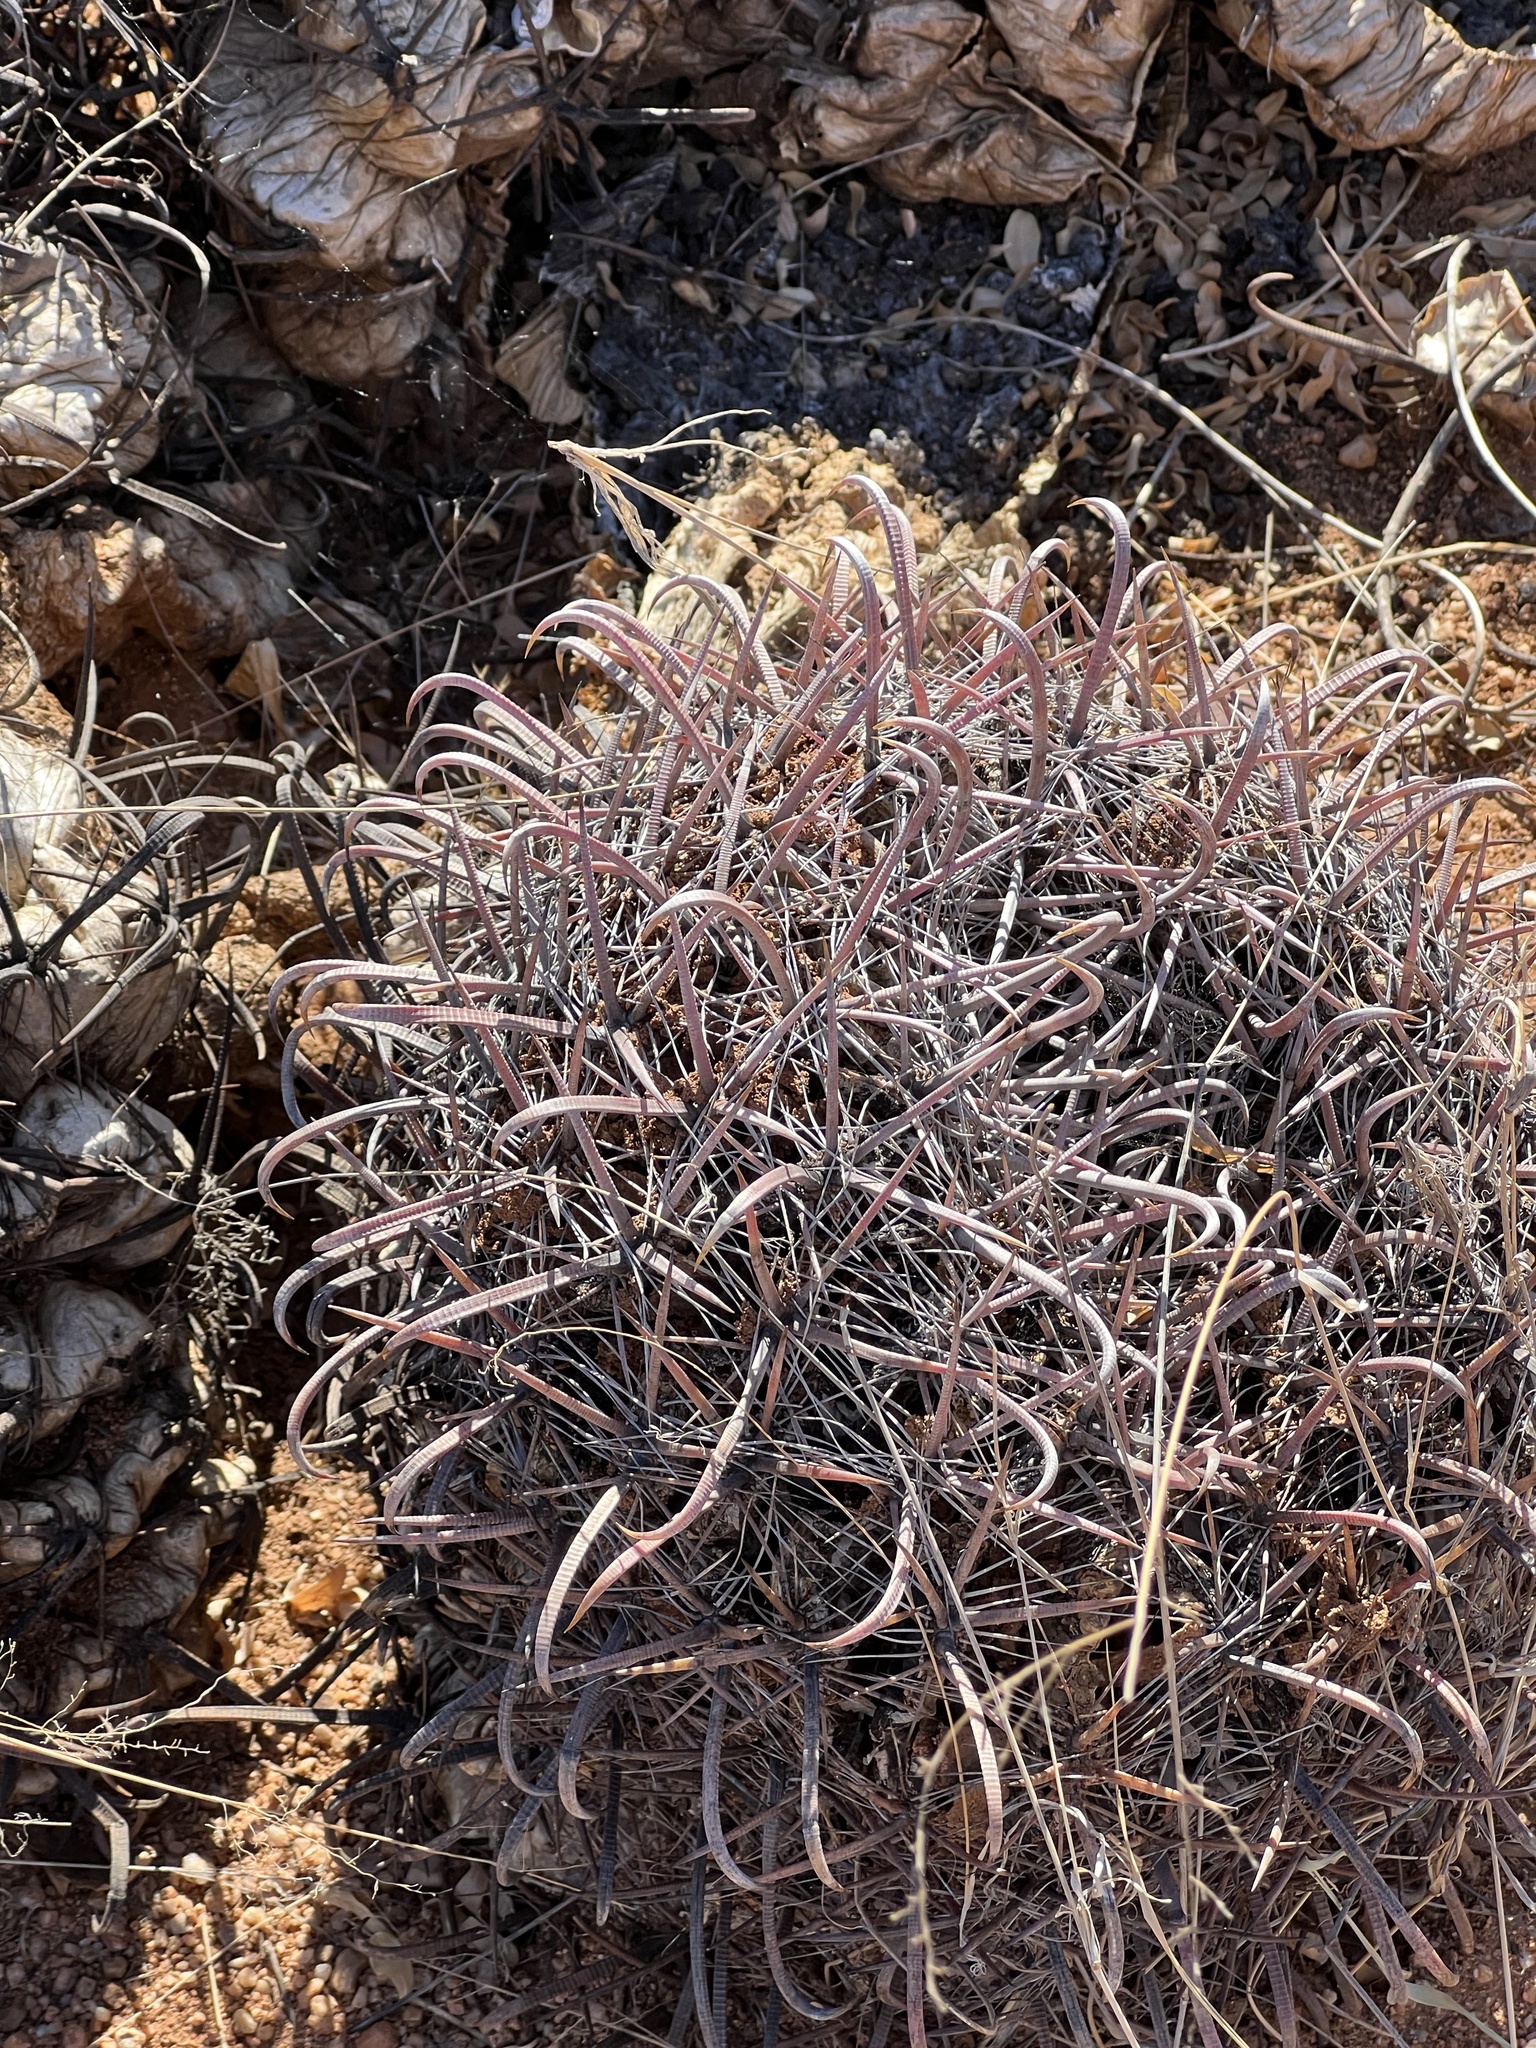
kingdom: Plantae
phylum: Tracheophyta
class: Magnoliopsida
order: Caryophyllales
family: Cactaceae
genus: Ferocactus
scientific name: Ferocactus wislizeni
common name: Candy barrel cactus
